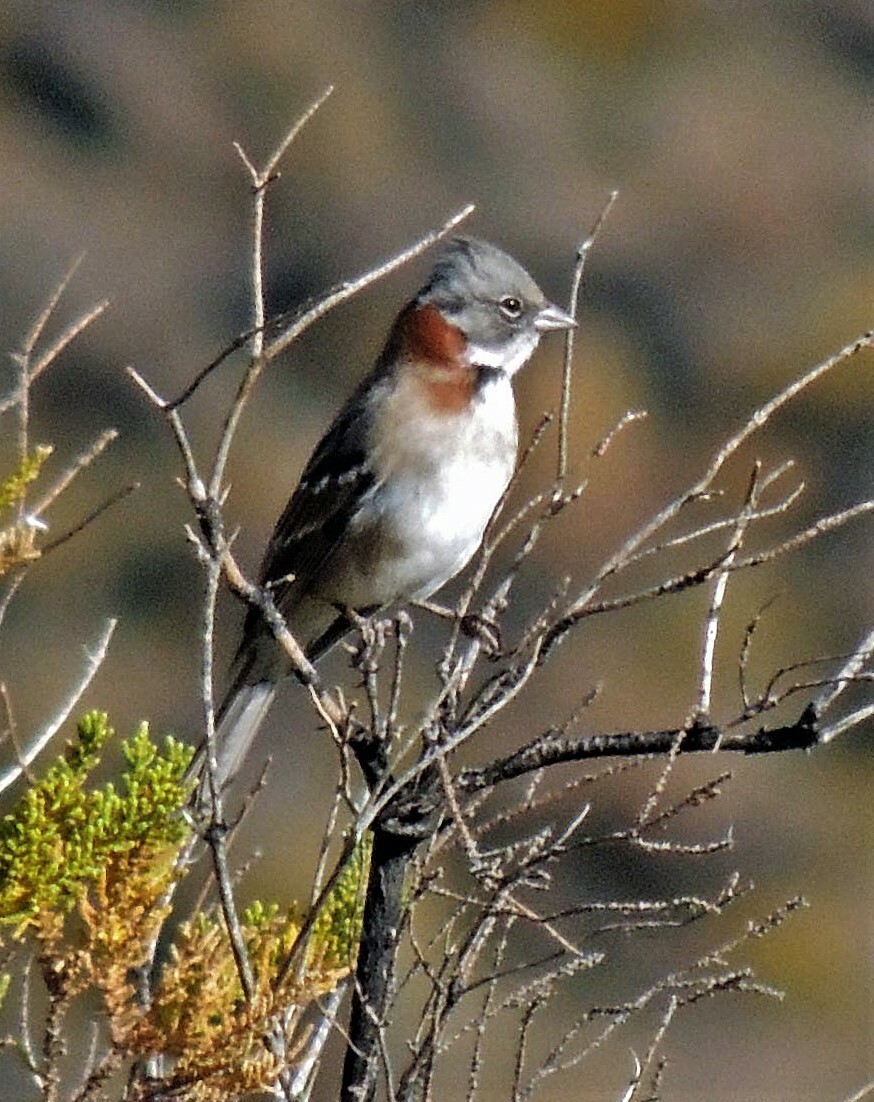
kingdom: Animalia
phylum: Chordata
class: Aves
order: Passeriformes
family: Passerellidae
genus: Zonotrichia
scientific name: Zonotrichia capensis
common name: Rufous-collared sparrow
